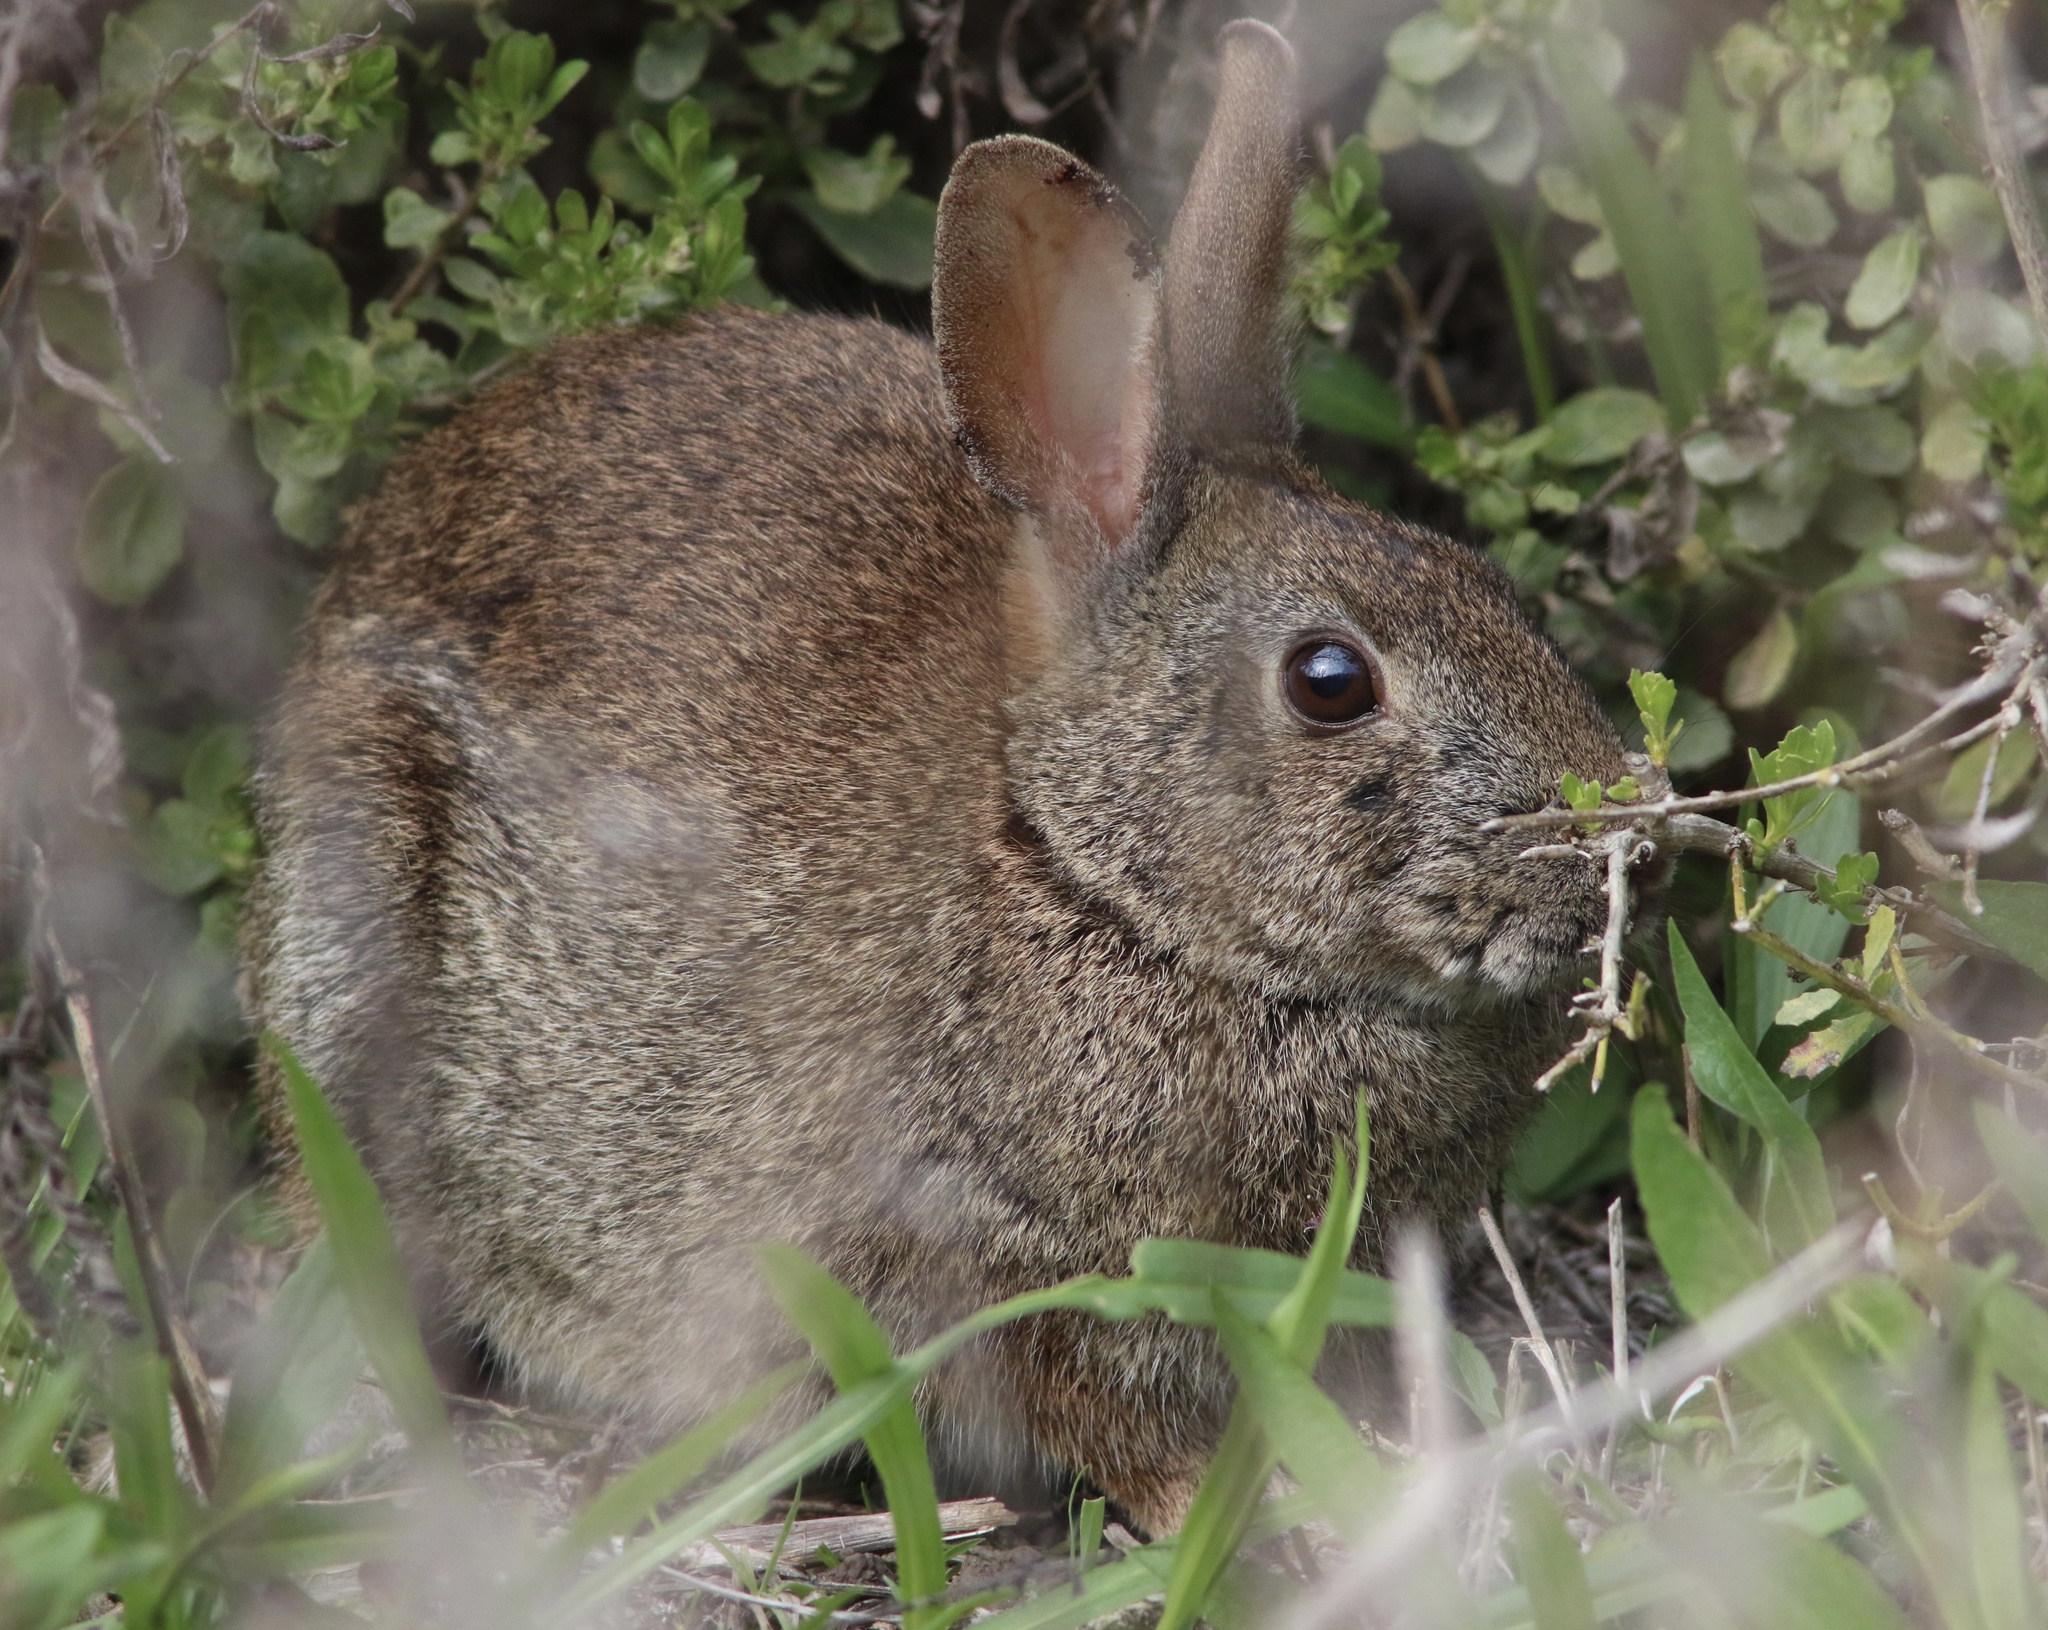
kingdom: Animalia
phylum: Chordata
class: Mammalia
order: Lagomorpha
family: Leporidae
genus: Sylvilagus
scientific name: Sylvilagus bachmani
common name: Brush rabbit
